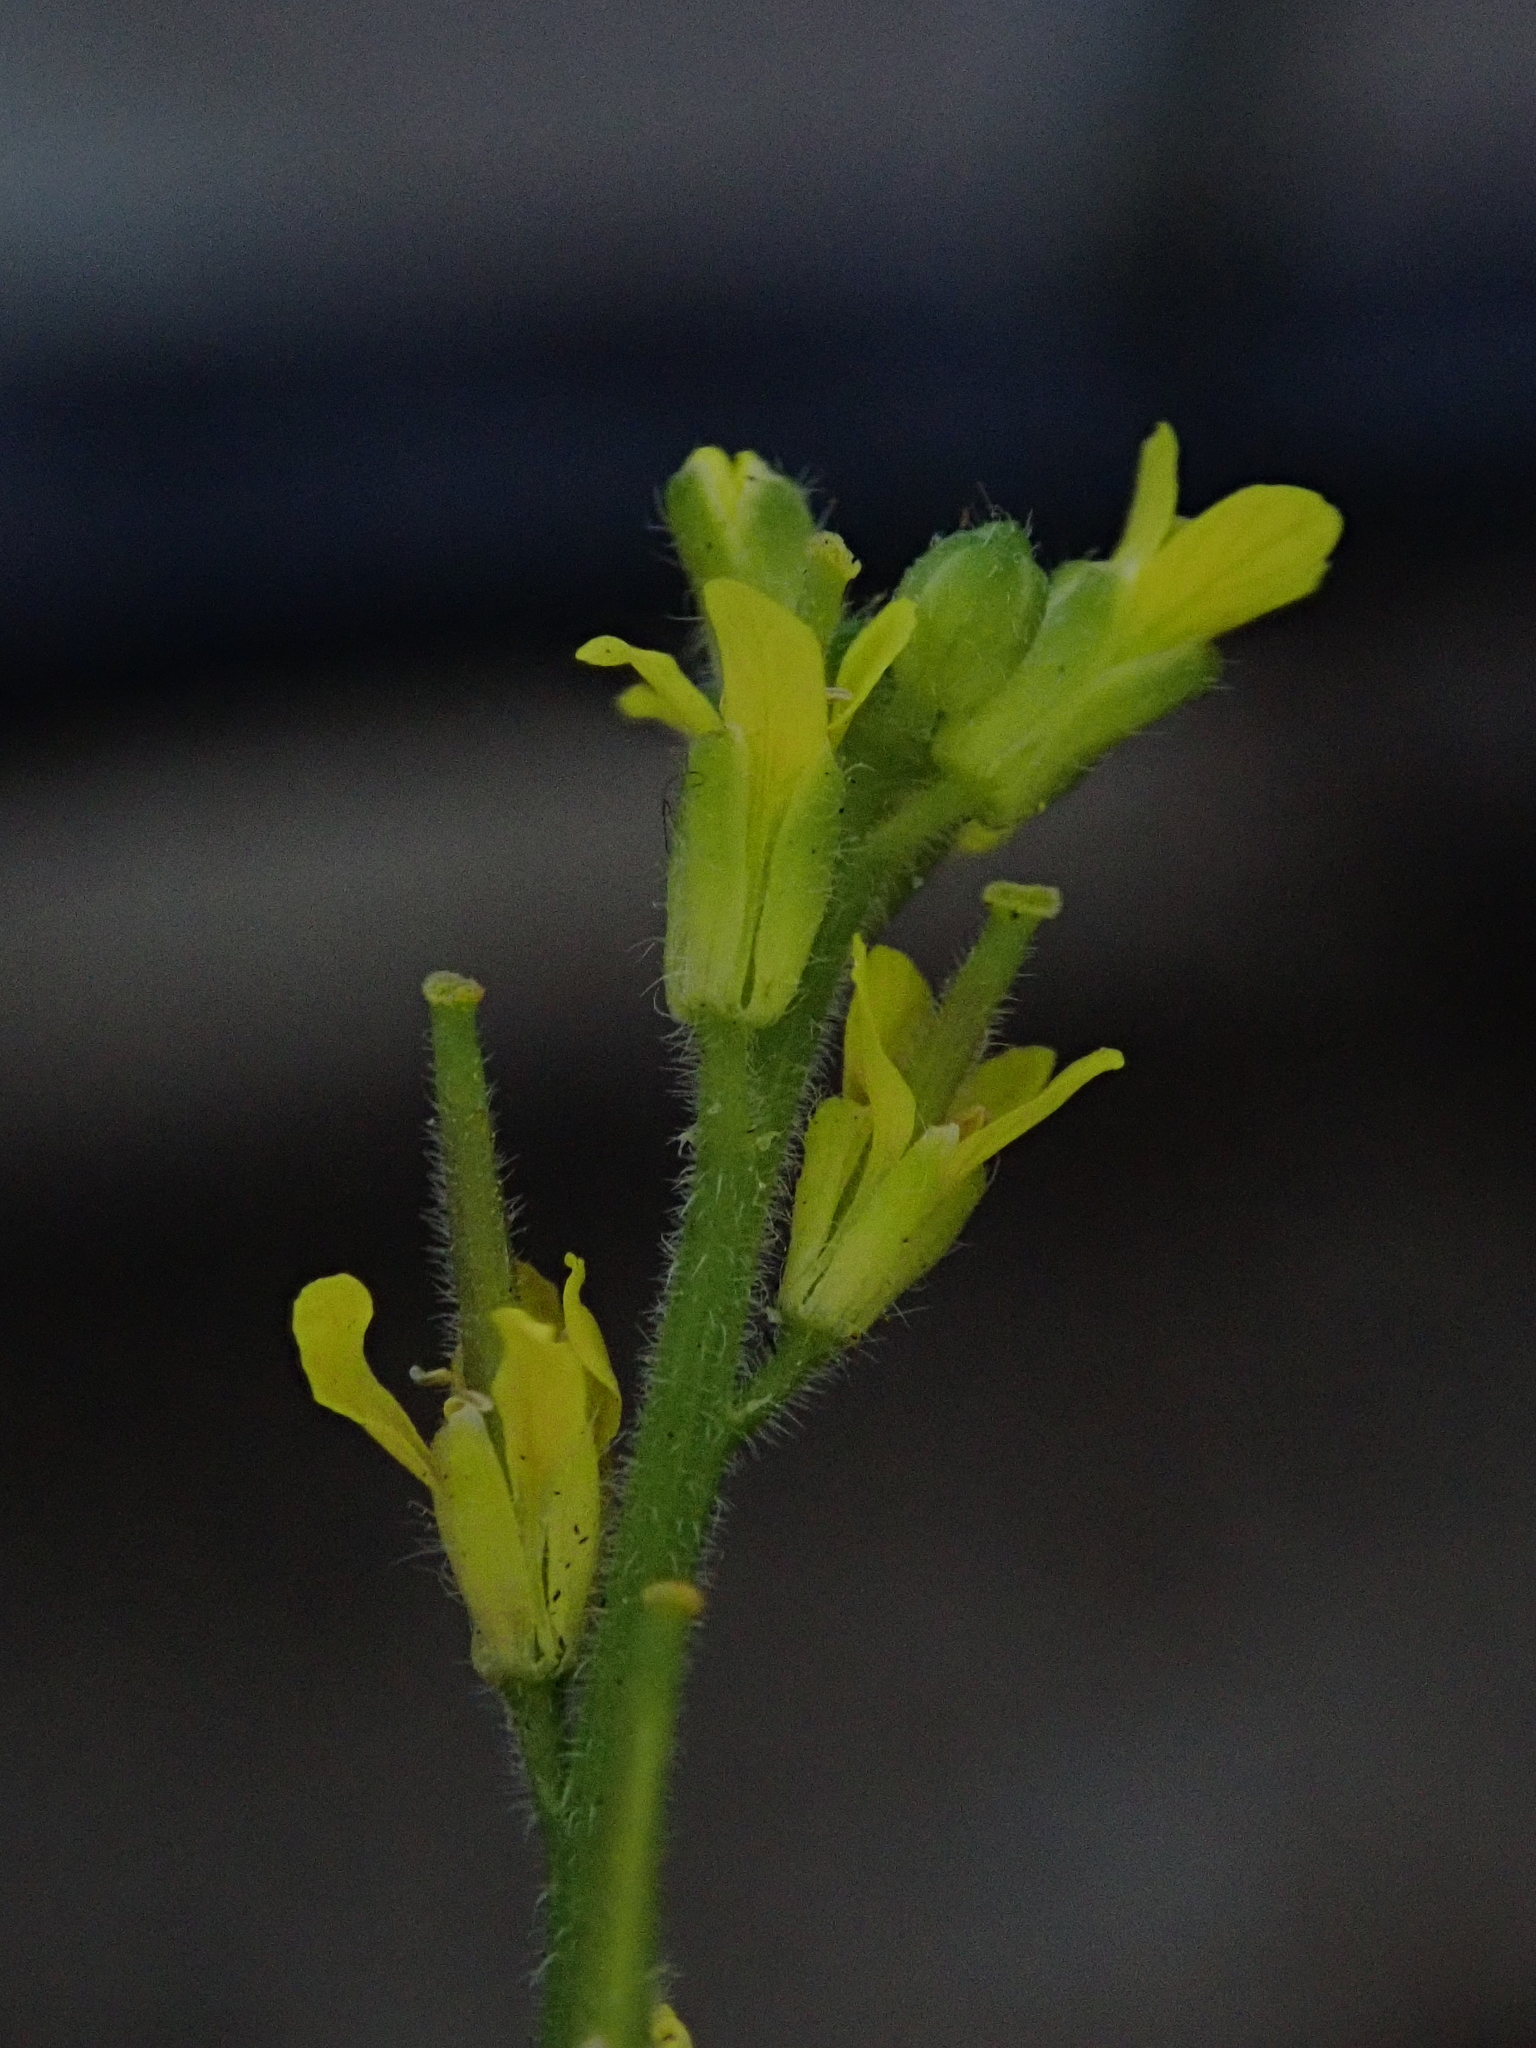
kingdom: Plantae
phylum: Tracheophyta
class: Magnoliopsida
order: Brassicales
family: Brassicaceae
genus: Sisymbrium
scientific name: Sisymbrium officinale
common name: Hedge mustard
